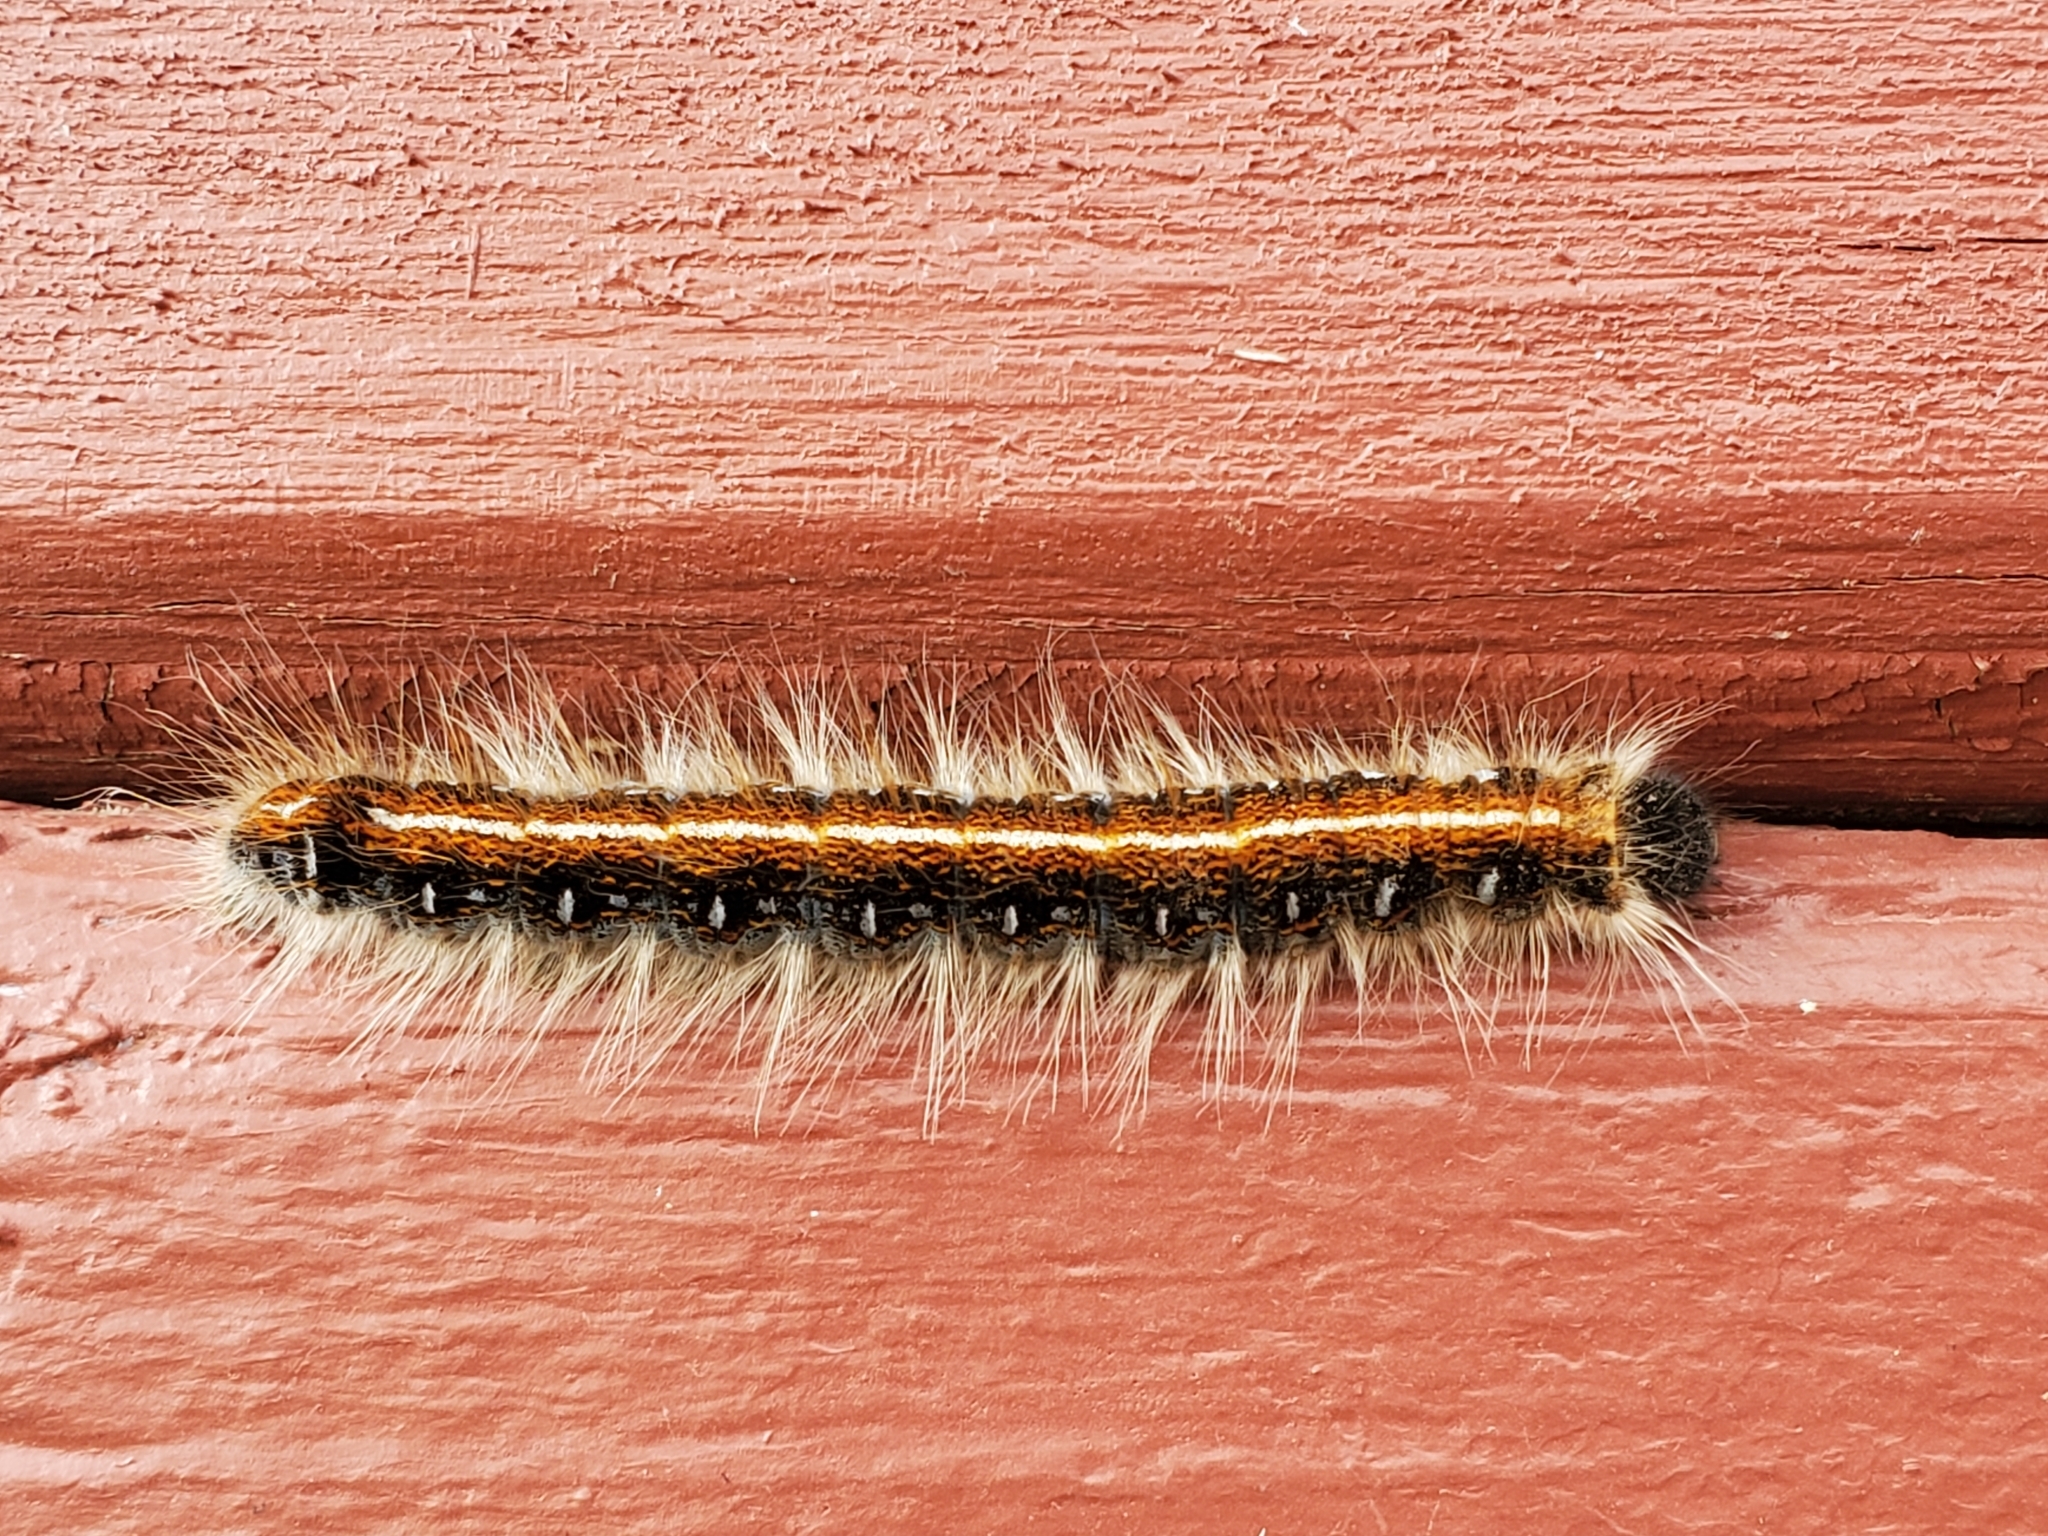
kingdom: Animalia
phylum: Arthropoda
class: Insecta
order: Lepidoptera
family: Lasiocampidae
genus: Malacosoma
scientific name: Malacosoma americana
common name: Eastern tent caterpillar moth
